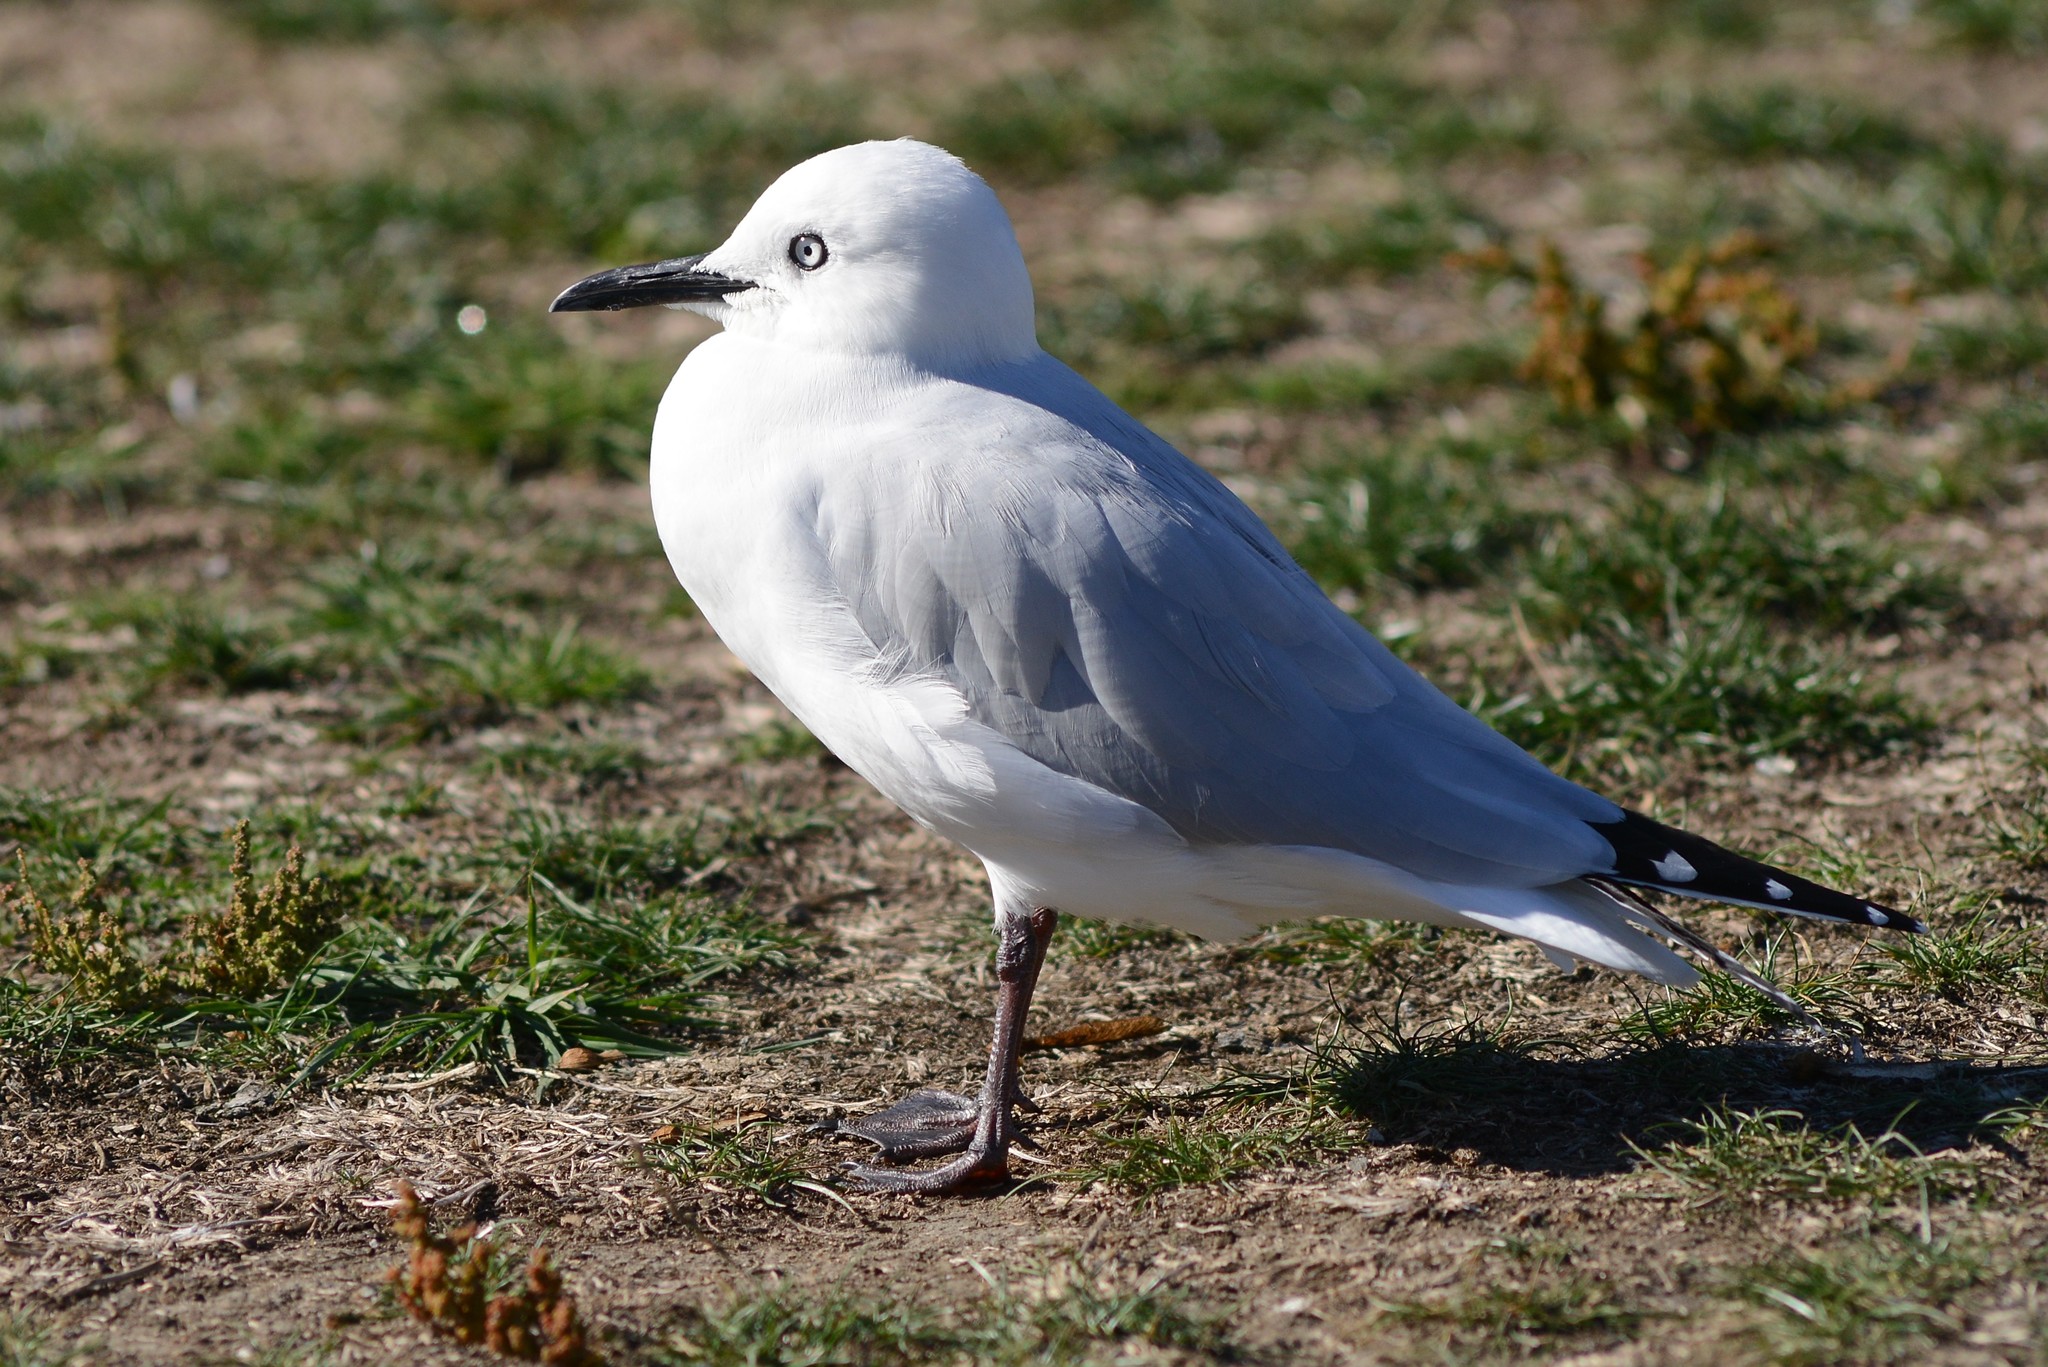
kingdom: Animalia
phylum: Chordata
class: Aves
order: Charadriiformes
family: Laridae
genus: Chroicocephalus
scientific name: Chroicocephalus bulleri
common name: Black-billed gull
